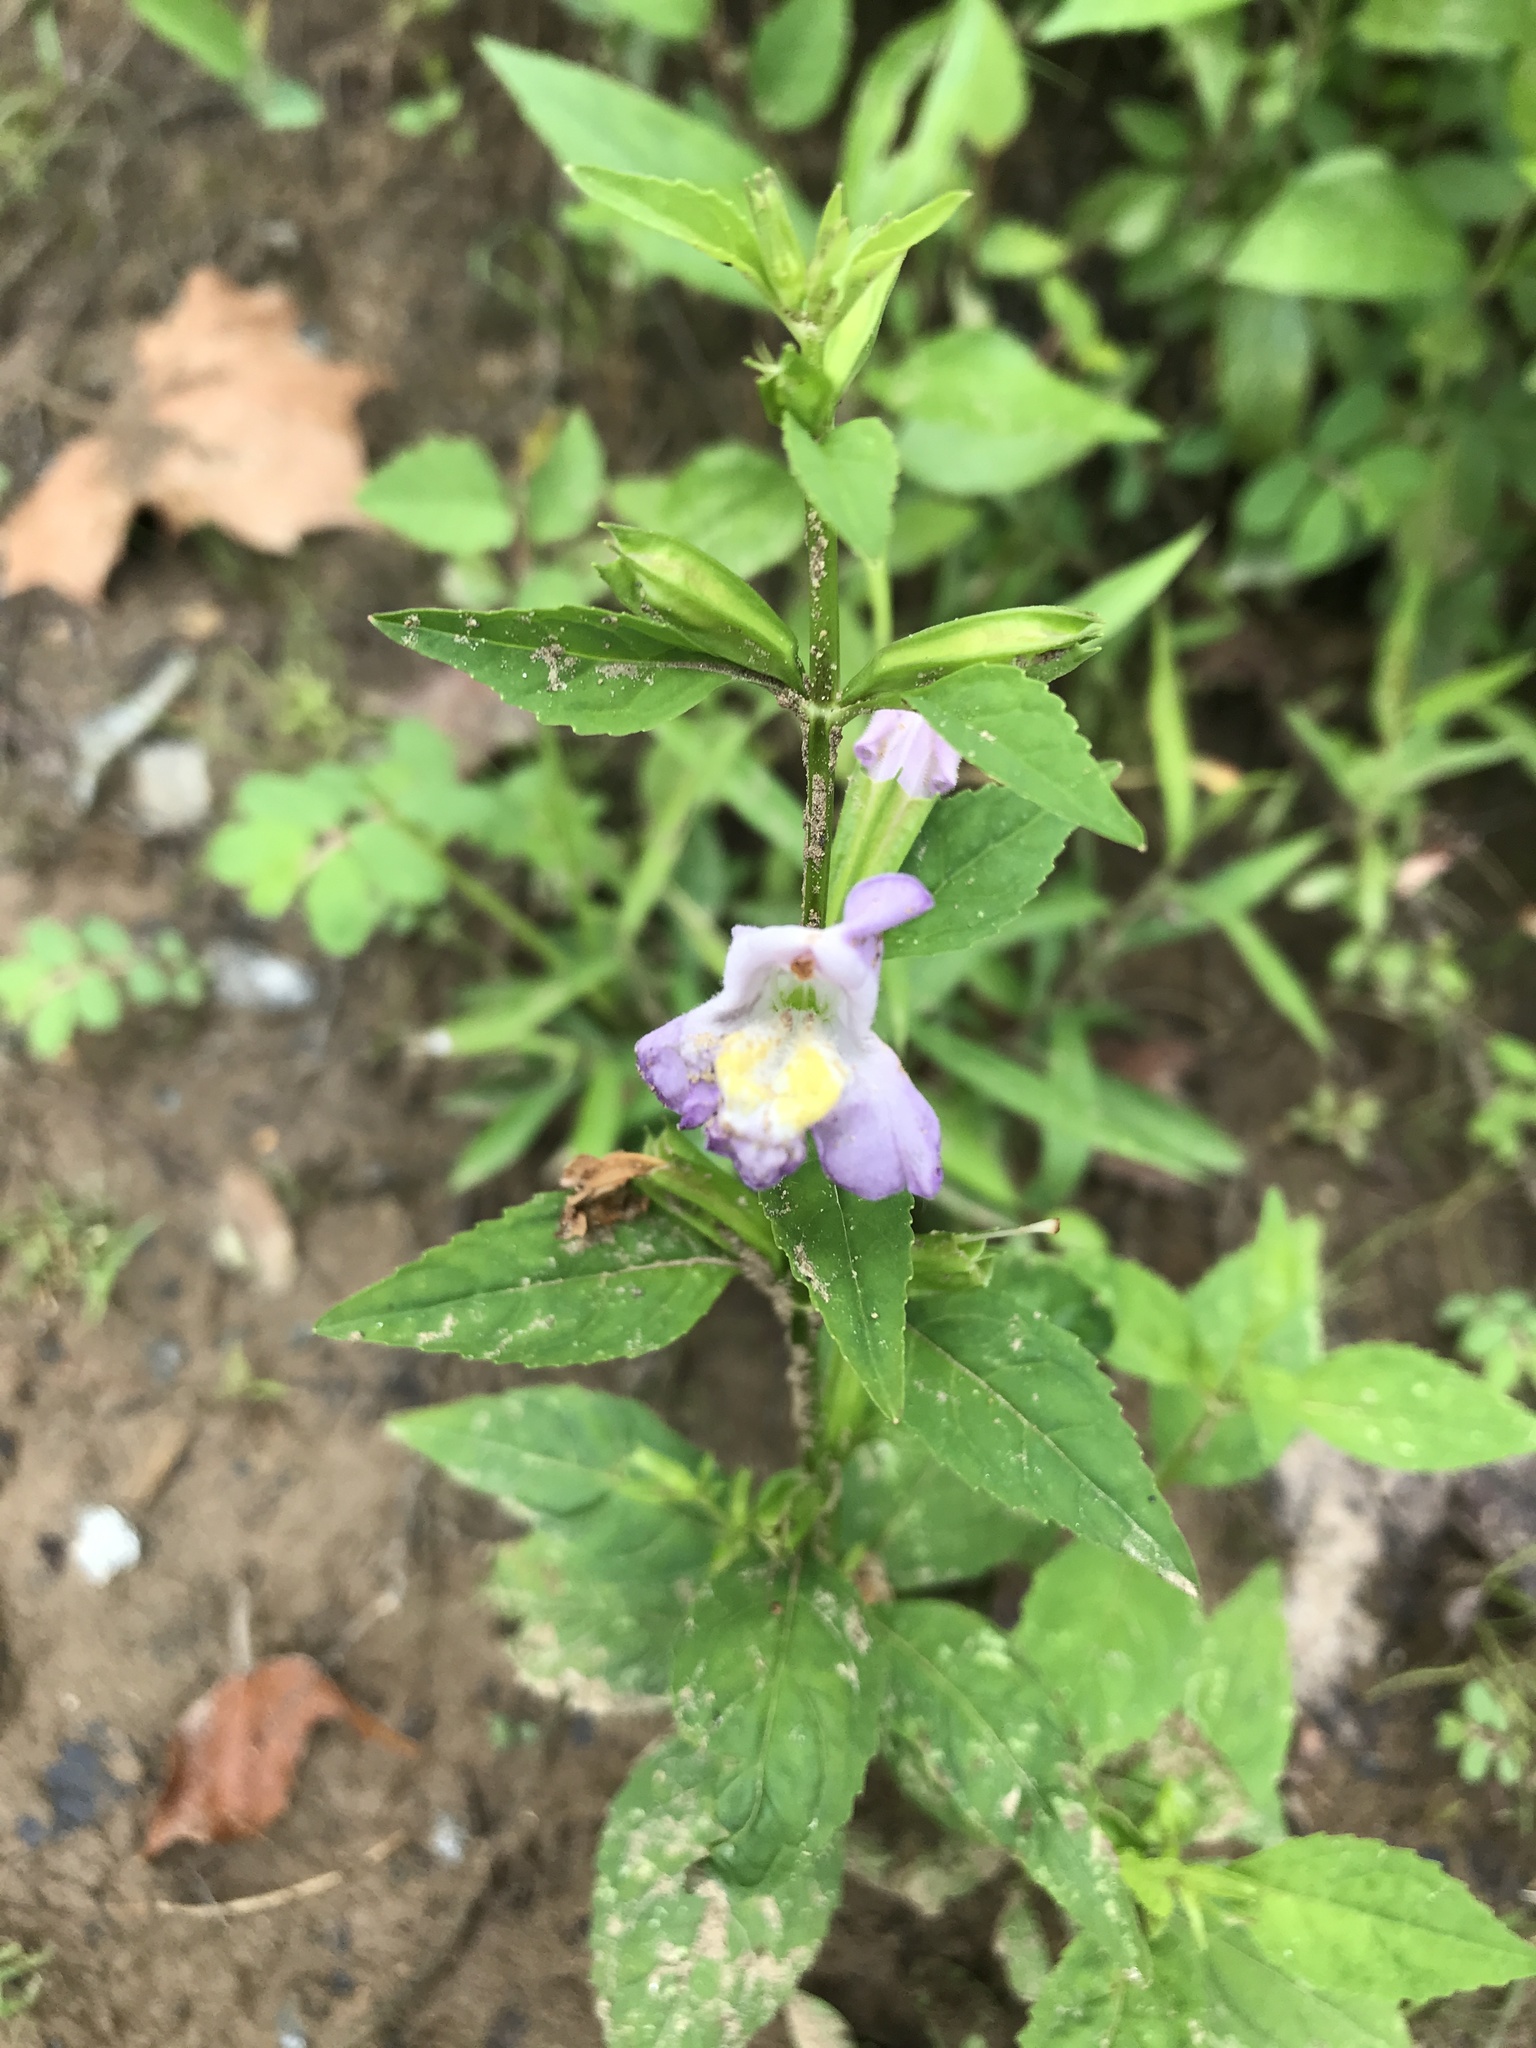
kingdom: Plantae
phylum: Tracheophyta
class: Magnoliopsida
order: Lamiales
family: Phrymaceae
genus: Mimulus
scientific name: Mimulus alatus
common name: Sharp-wing monkey-flower
